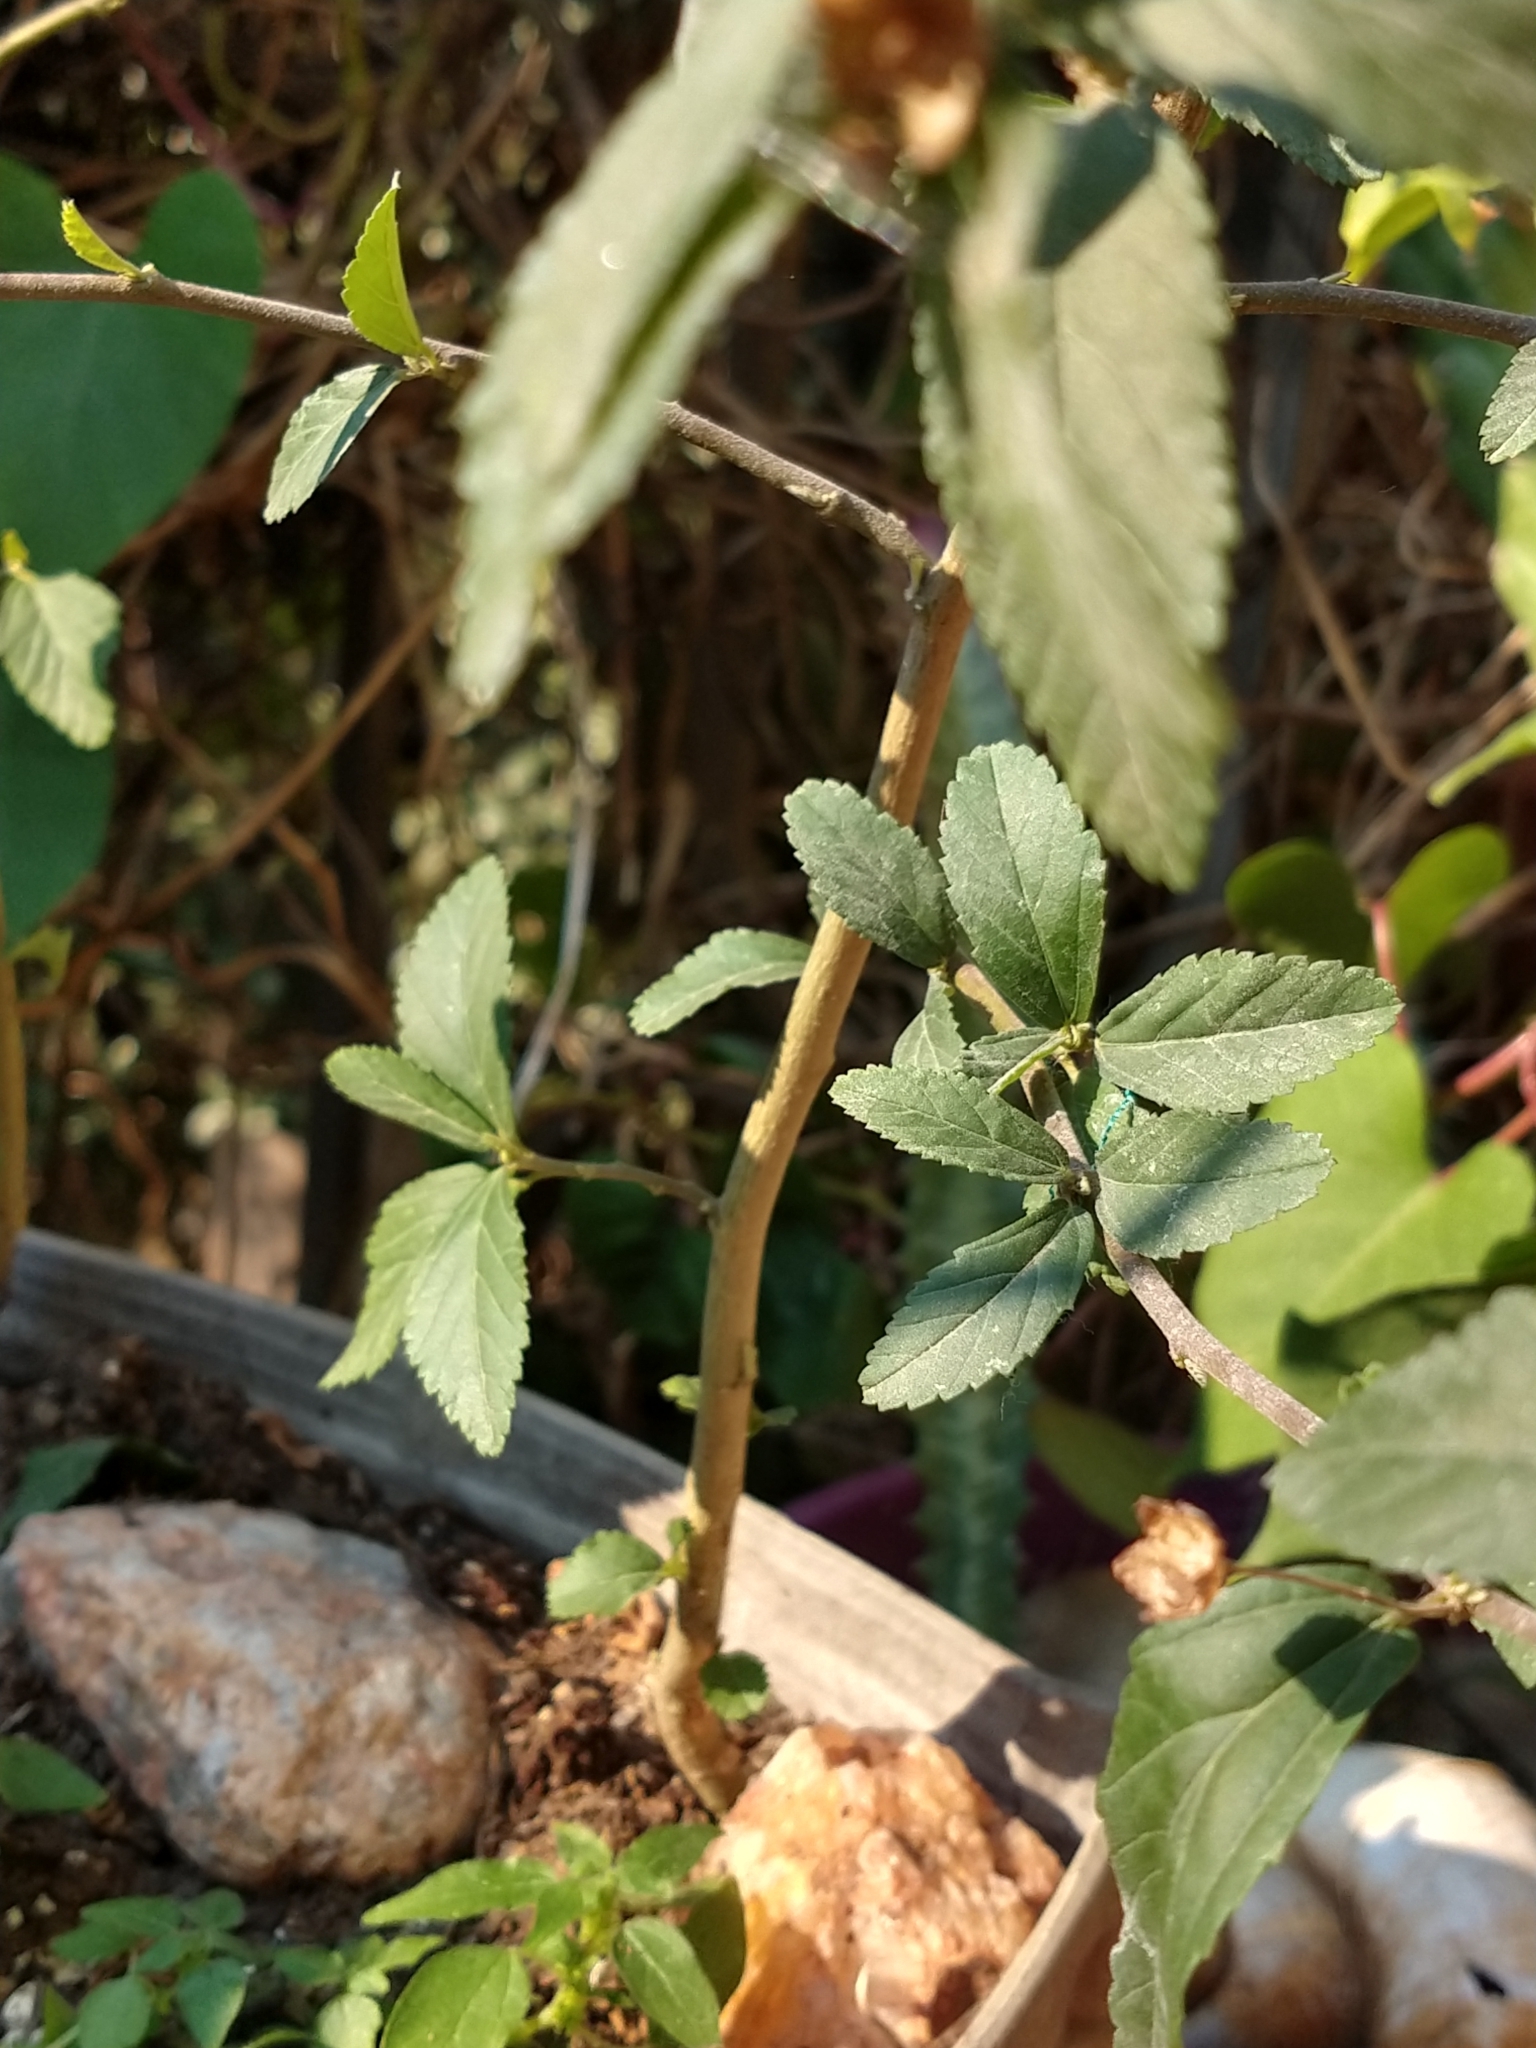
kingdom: Plantae
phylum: Tracheophyta
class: Magnoliopsida
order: Malvales
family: Malvaceae
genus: Sida
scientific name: Sida rhombifolia
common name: Queensland-hemp
